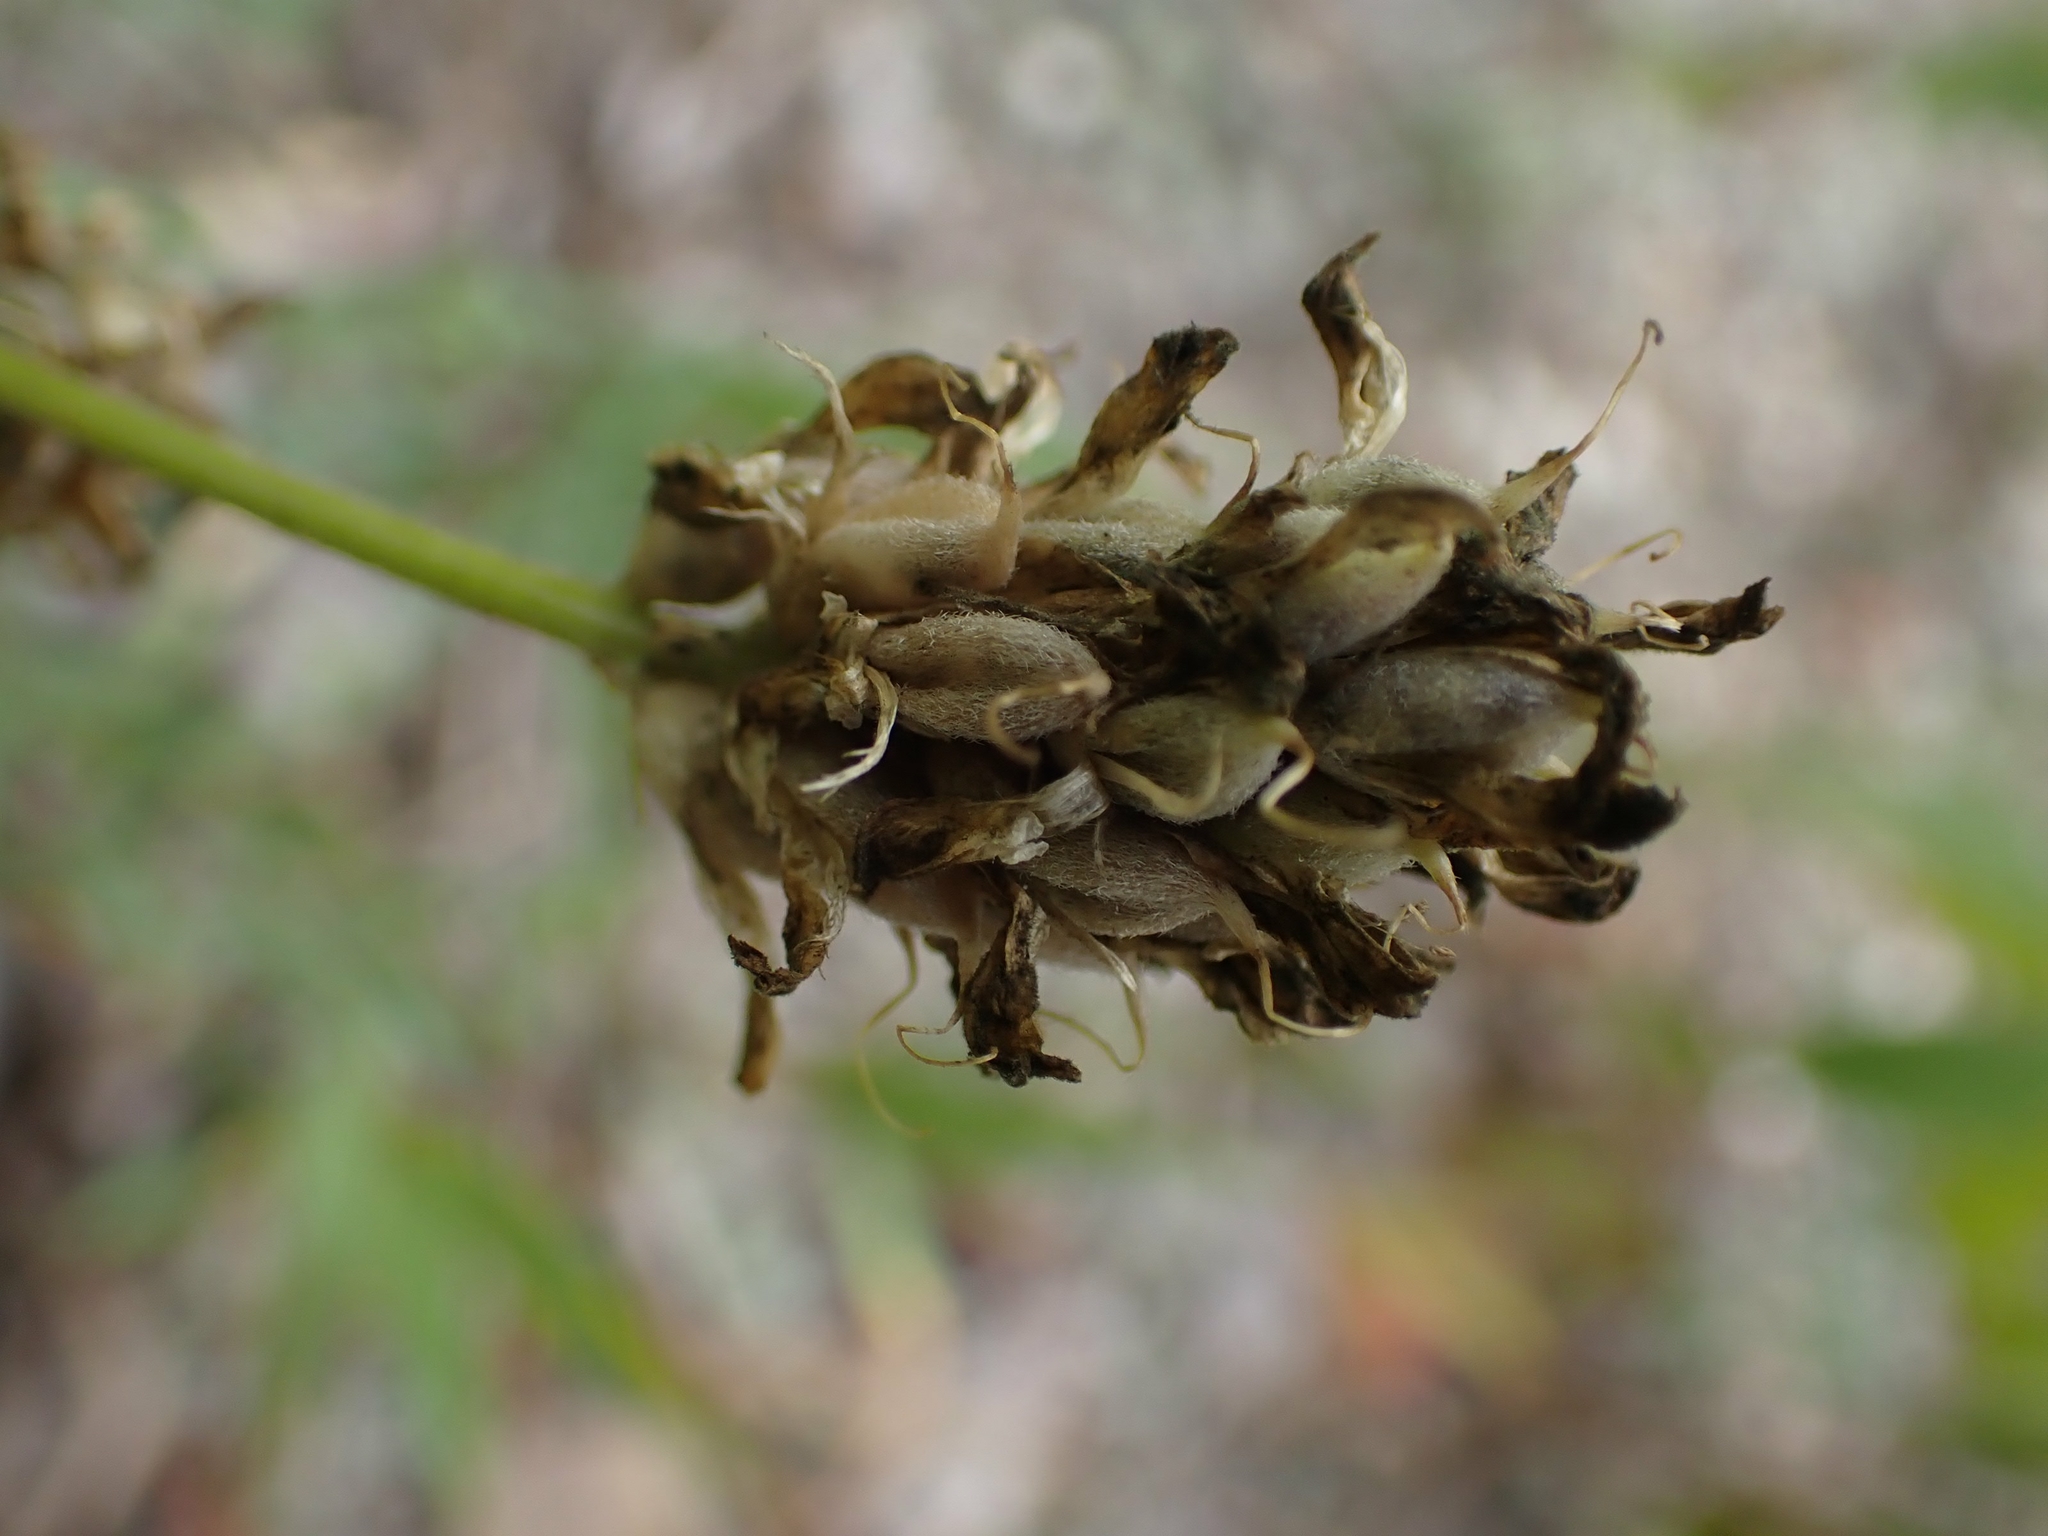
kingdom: Plantae
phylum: Tracheophyta
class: Magnoliopsida
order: Fabales
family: Fabaceae
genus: Astragalus
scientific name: Astragalus laxmannii
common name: Laxmann's milk-vetch
